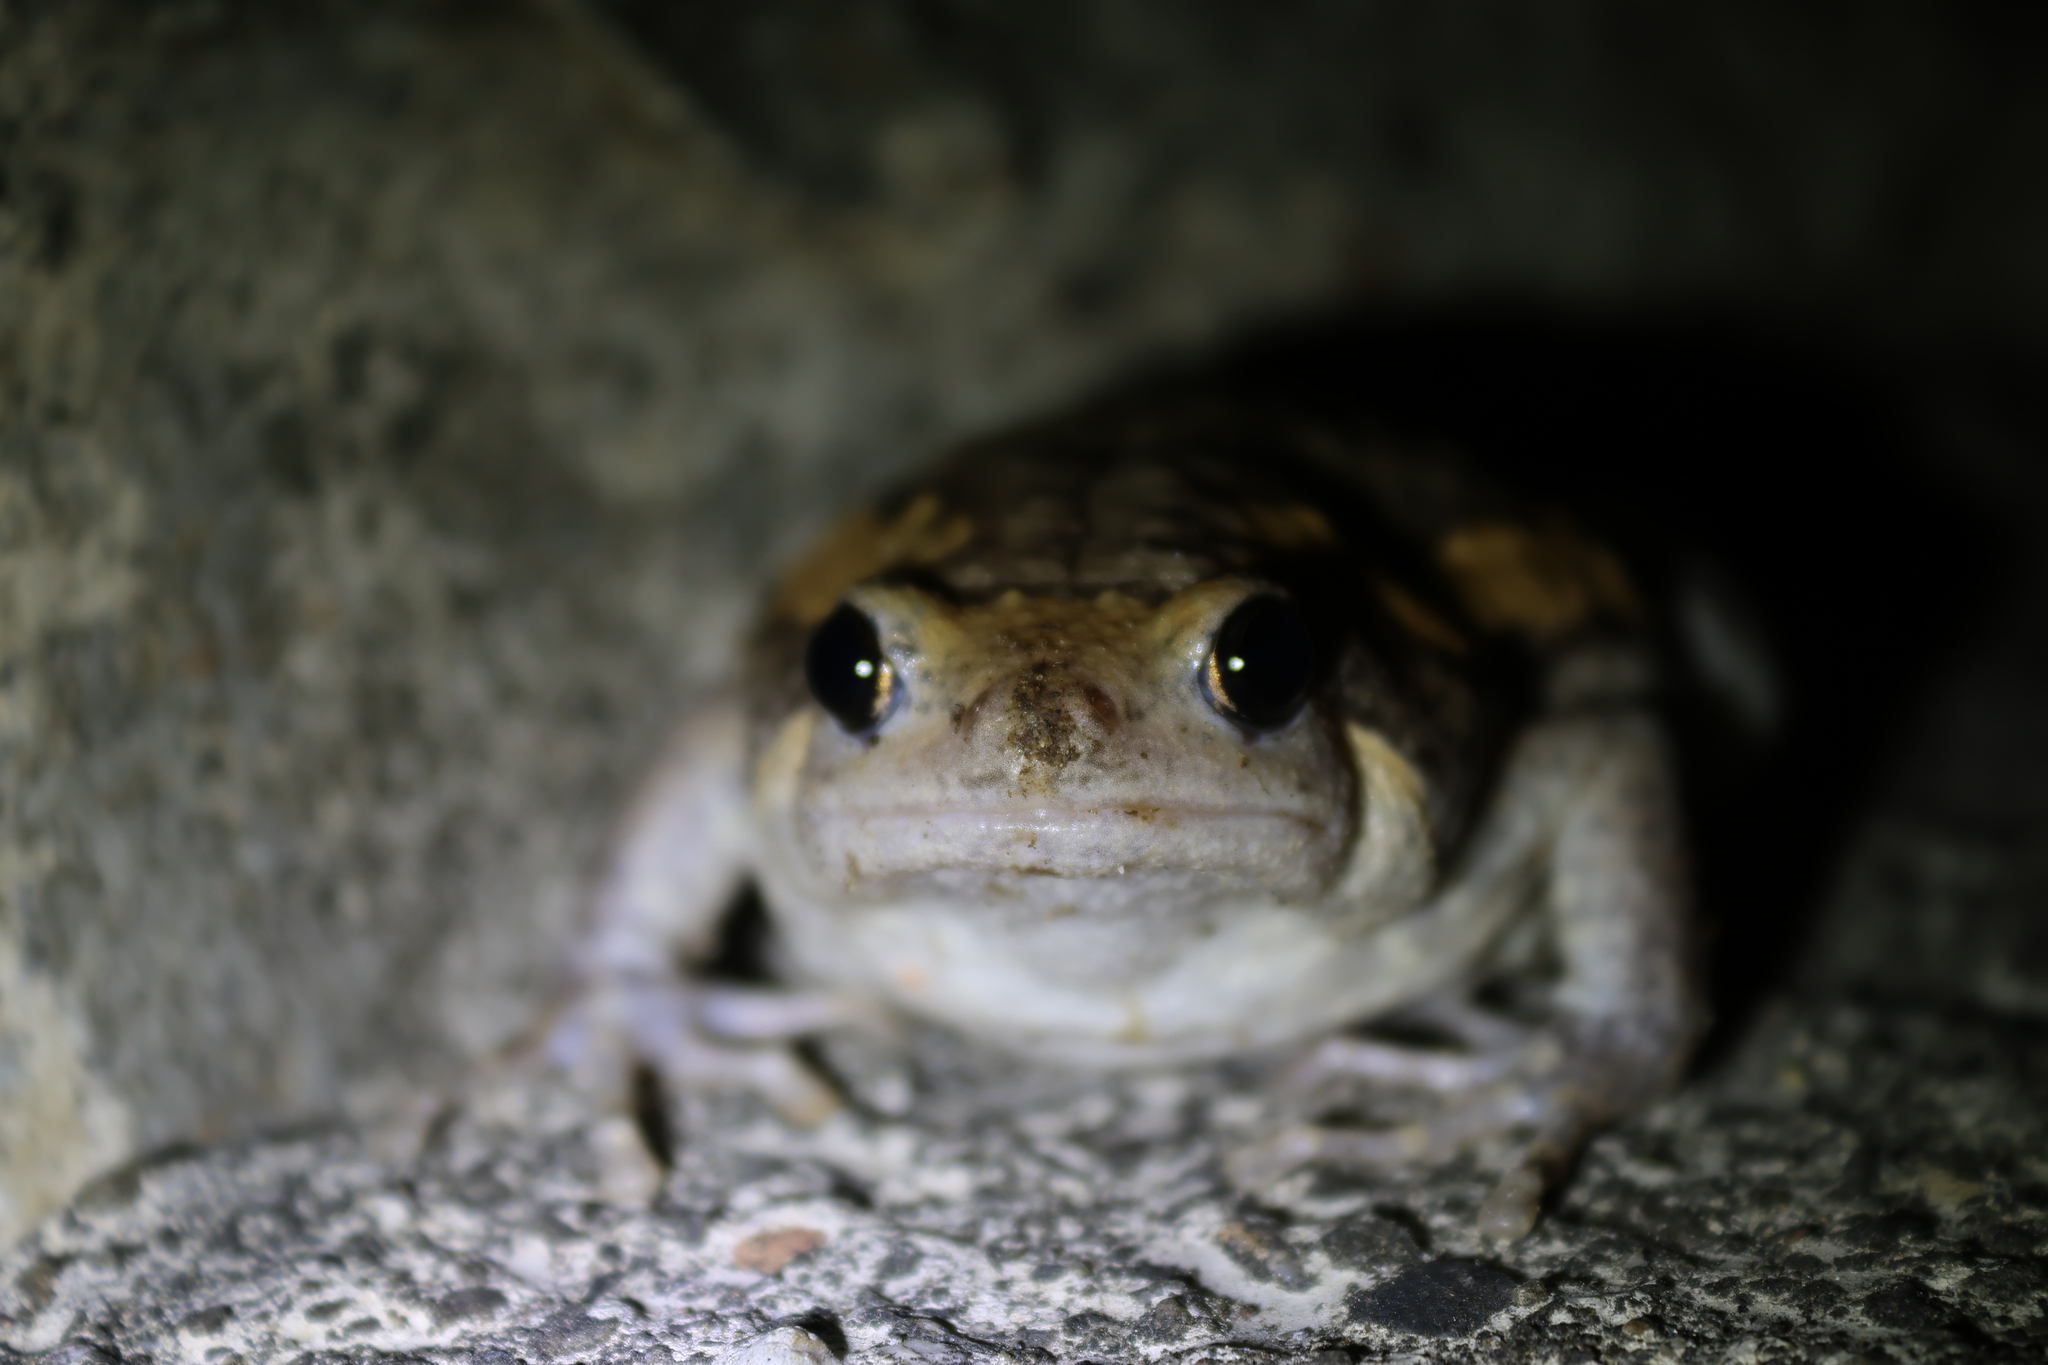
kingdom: Animalia
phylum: Chordata
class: Amphibia
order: Anura
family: Microhylidae
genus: Kaloula
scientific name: Kaloula pulchra
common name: Common,banded bullfrog
